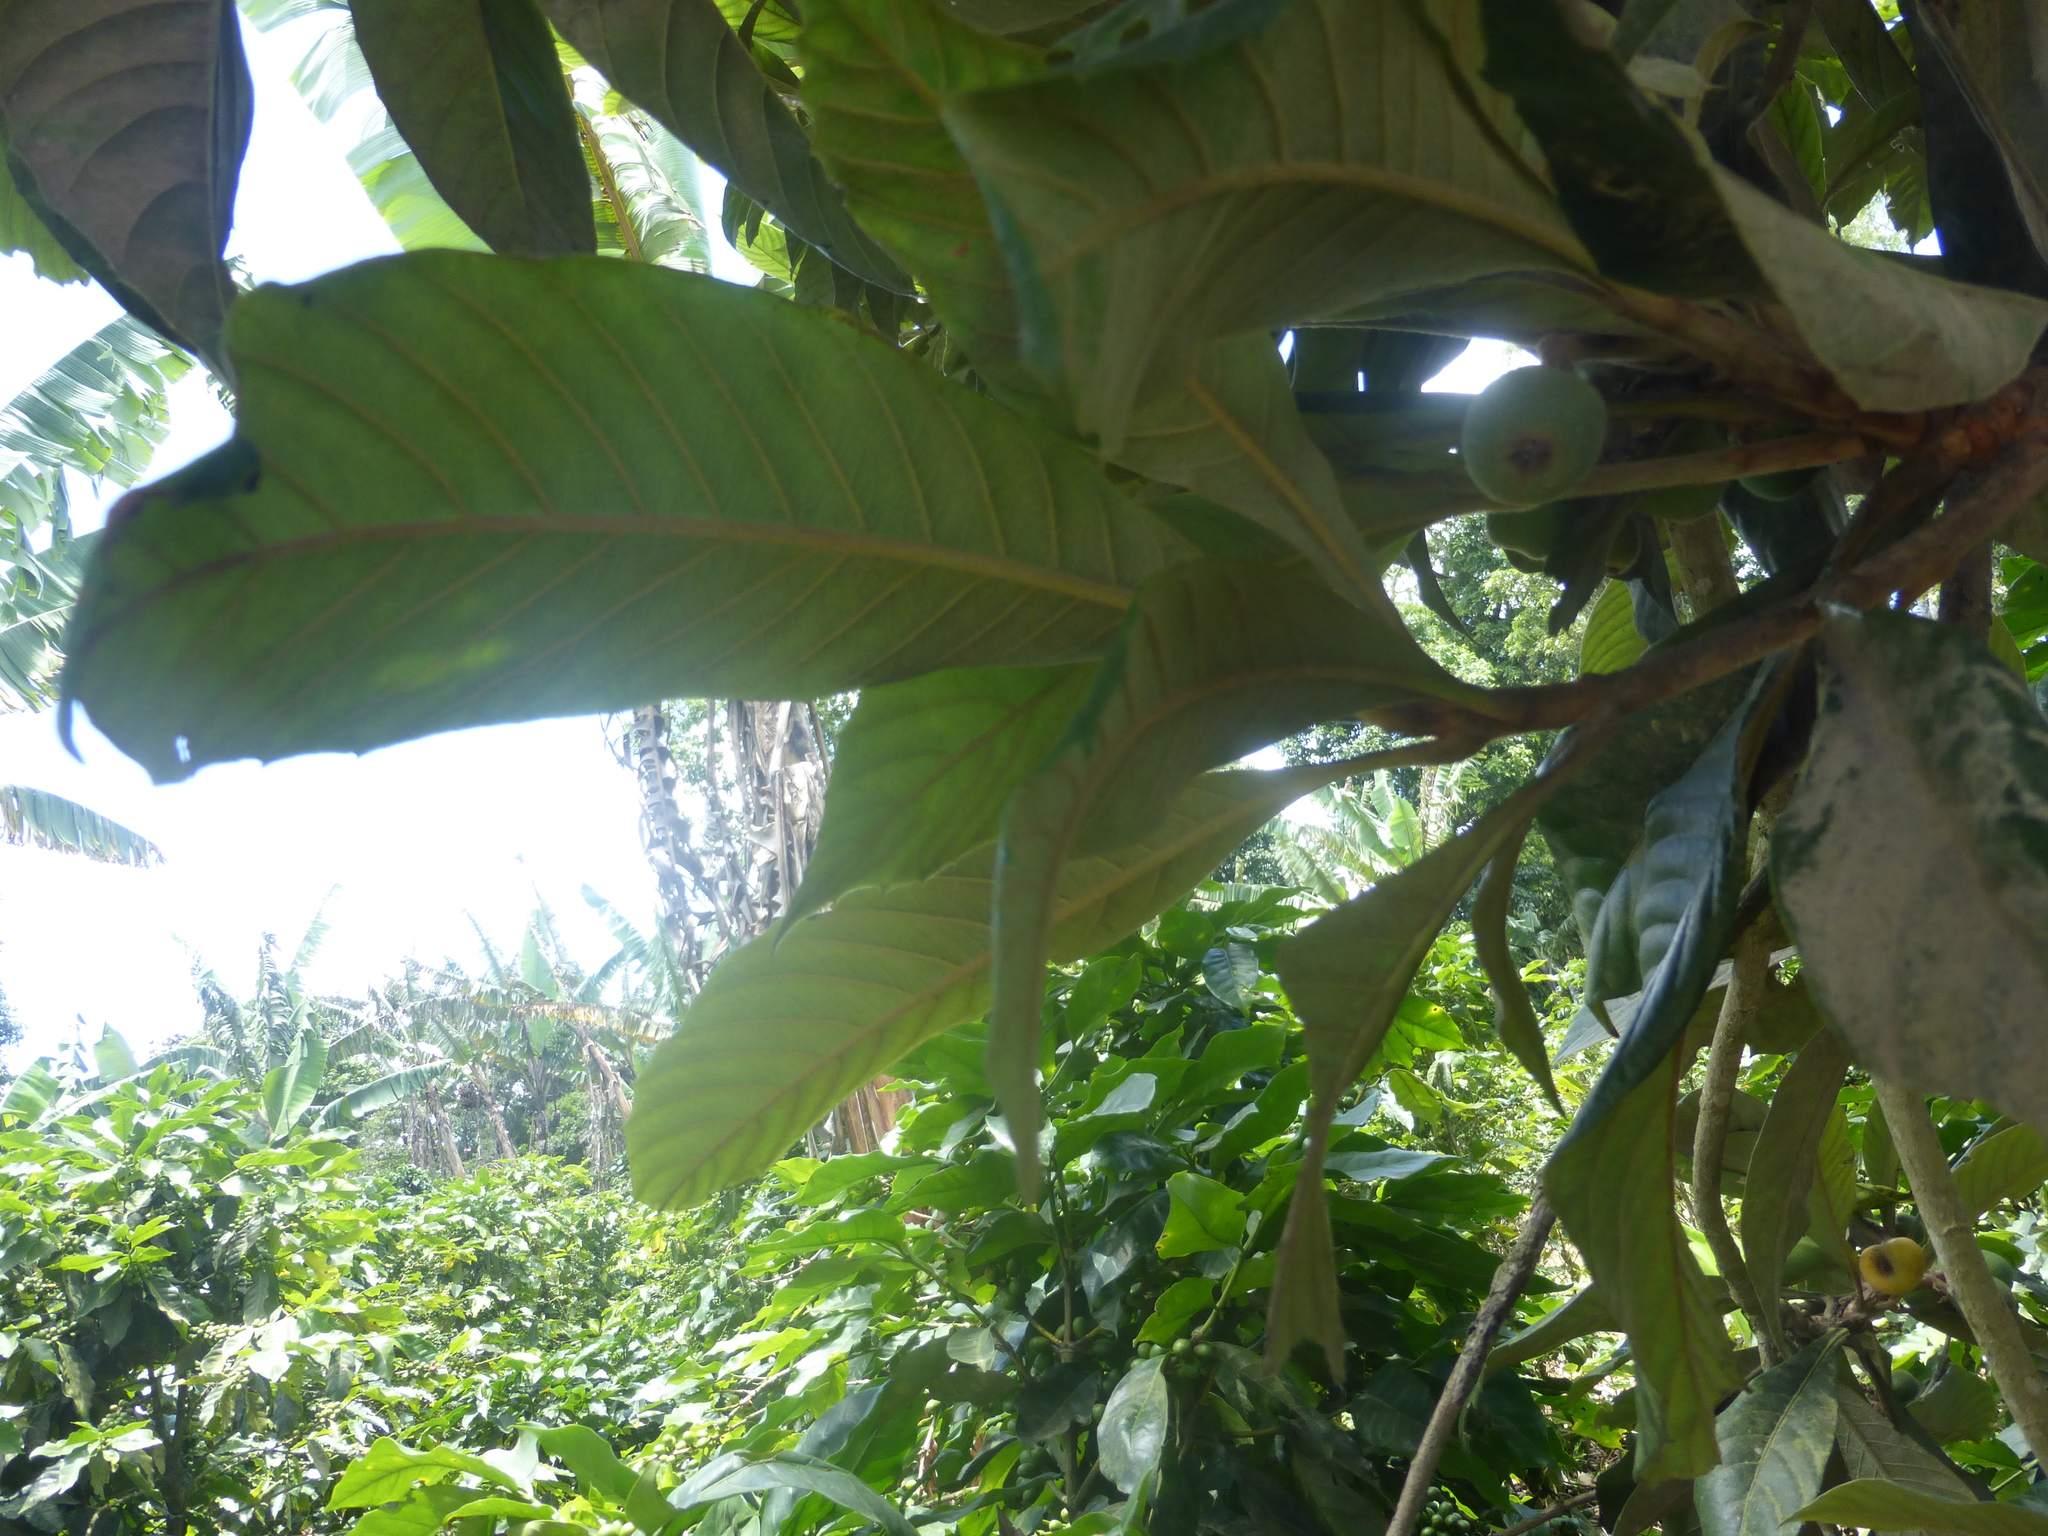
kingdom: Plantae
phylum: Tracheophyta
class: Magnoliopsida
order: Rosales
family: Rosaceae
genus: Rhaphiolepis
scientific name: Rhaphiolepis bibas
